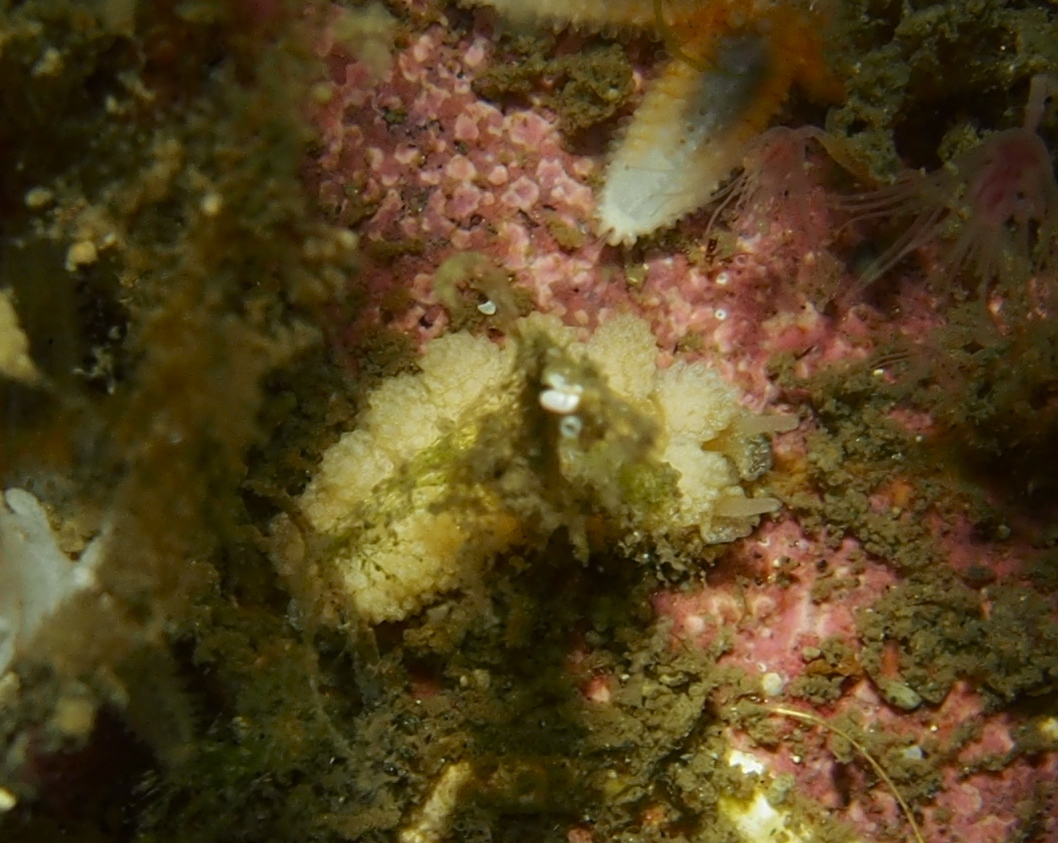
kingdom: Animalia
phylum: Mollusca
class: Gastropoda
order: Nudibranchia
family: Dotidae
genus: Doto
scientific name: Doto fragilis
